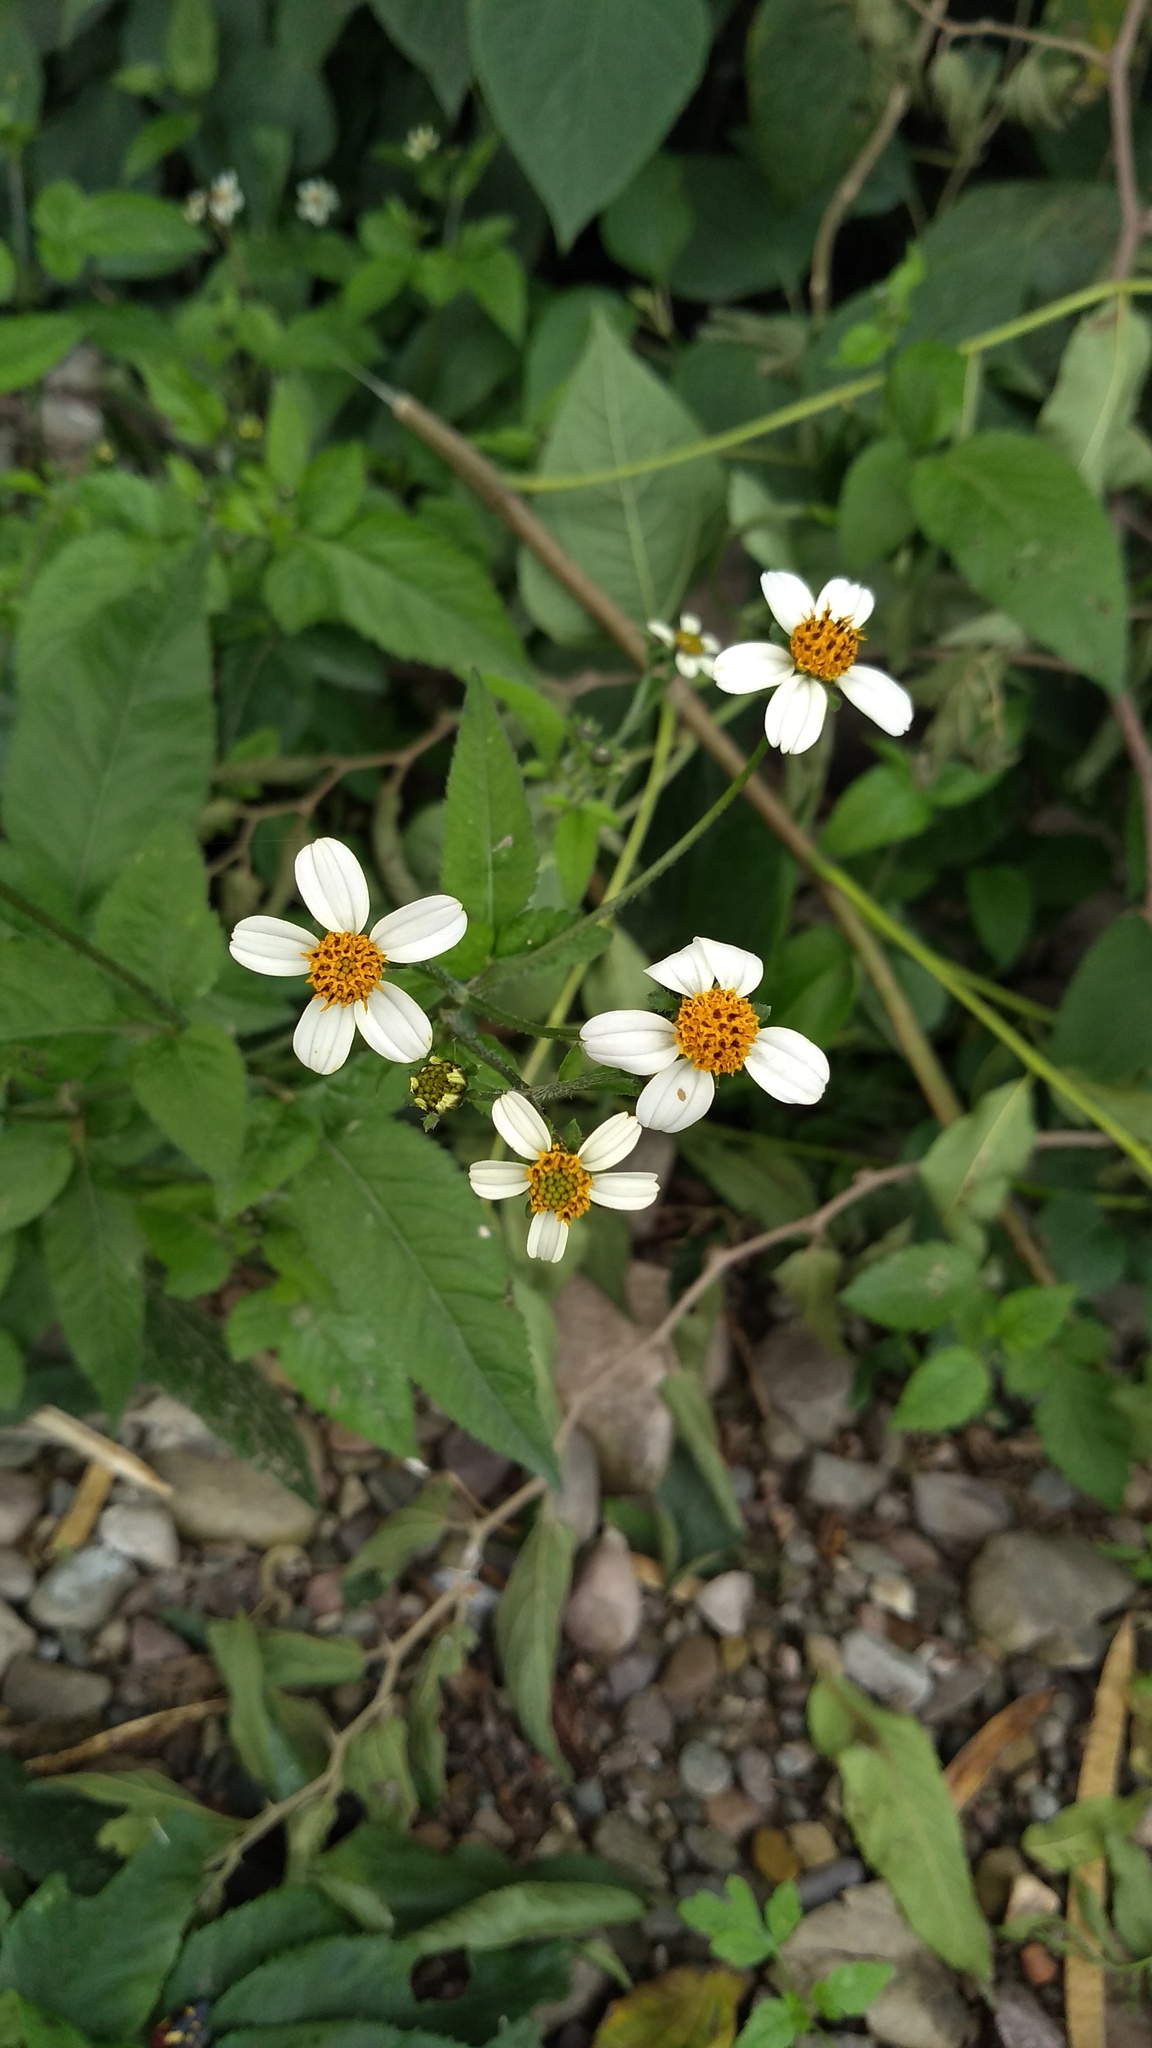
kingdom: Plantae
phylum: Tracheophyta
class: Magnoliopsida
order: Asterales
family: Asteraceae
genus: Bidens
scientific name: Bidens pilosa
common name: Black-jack
